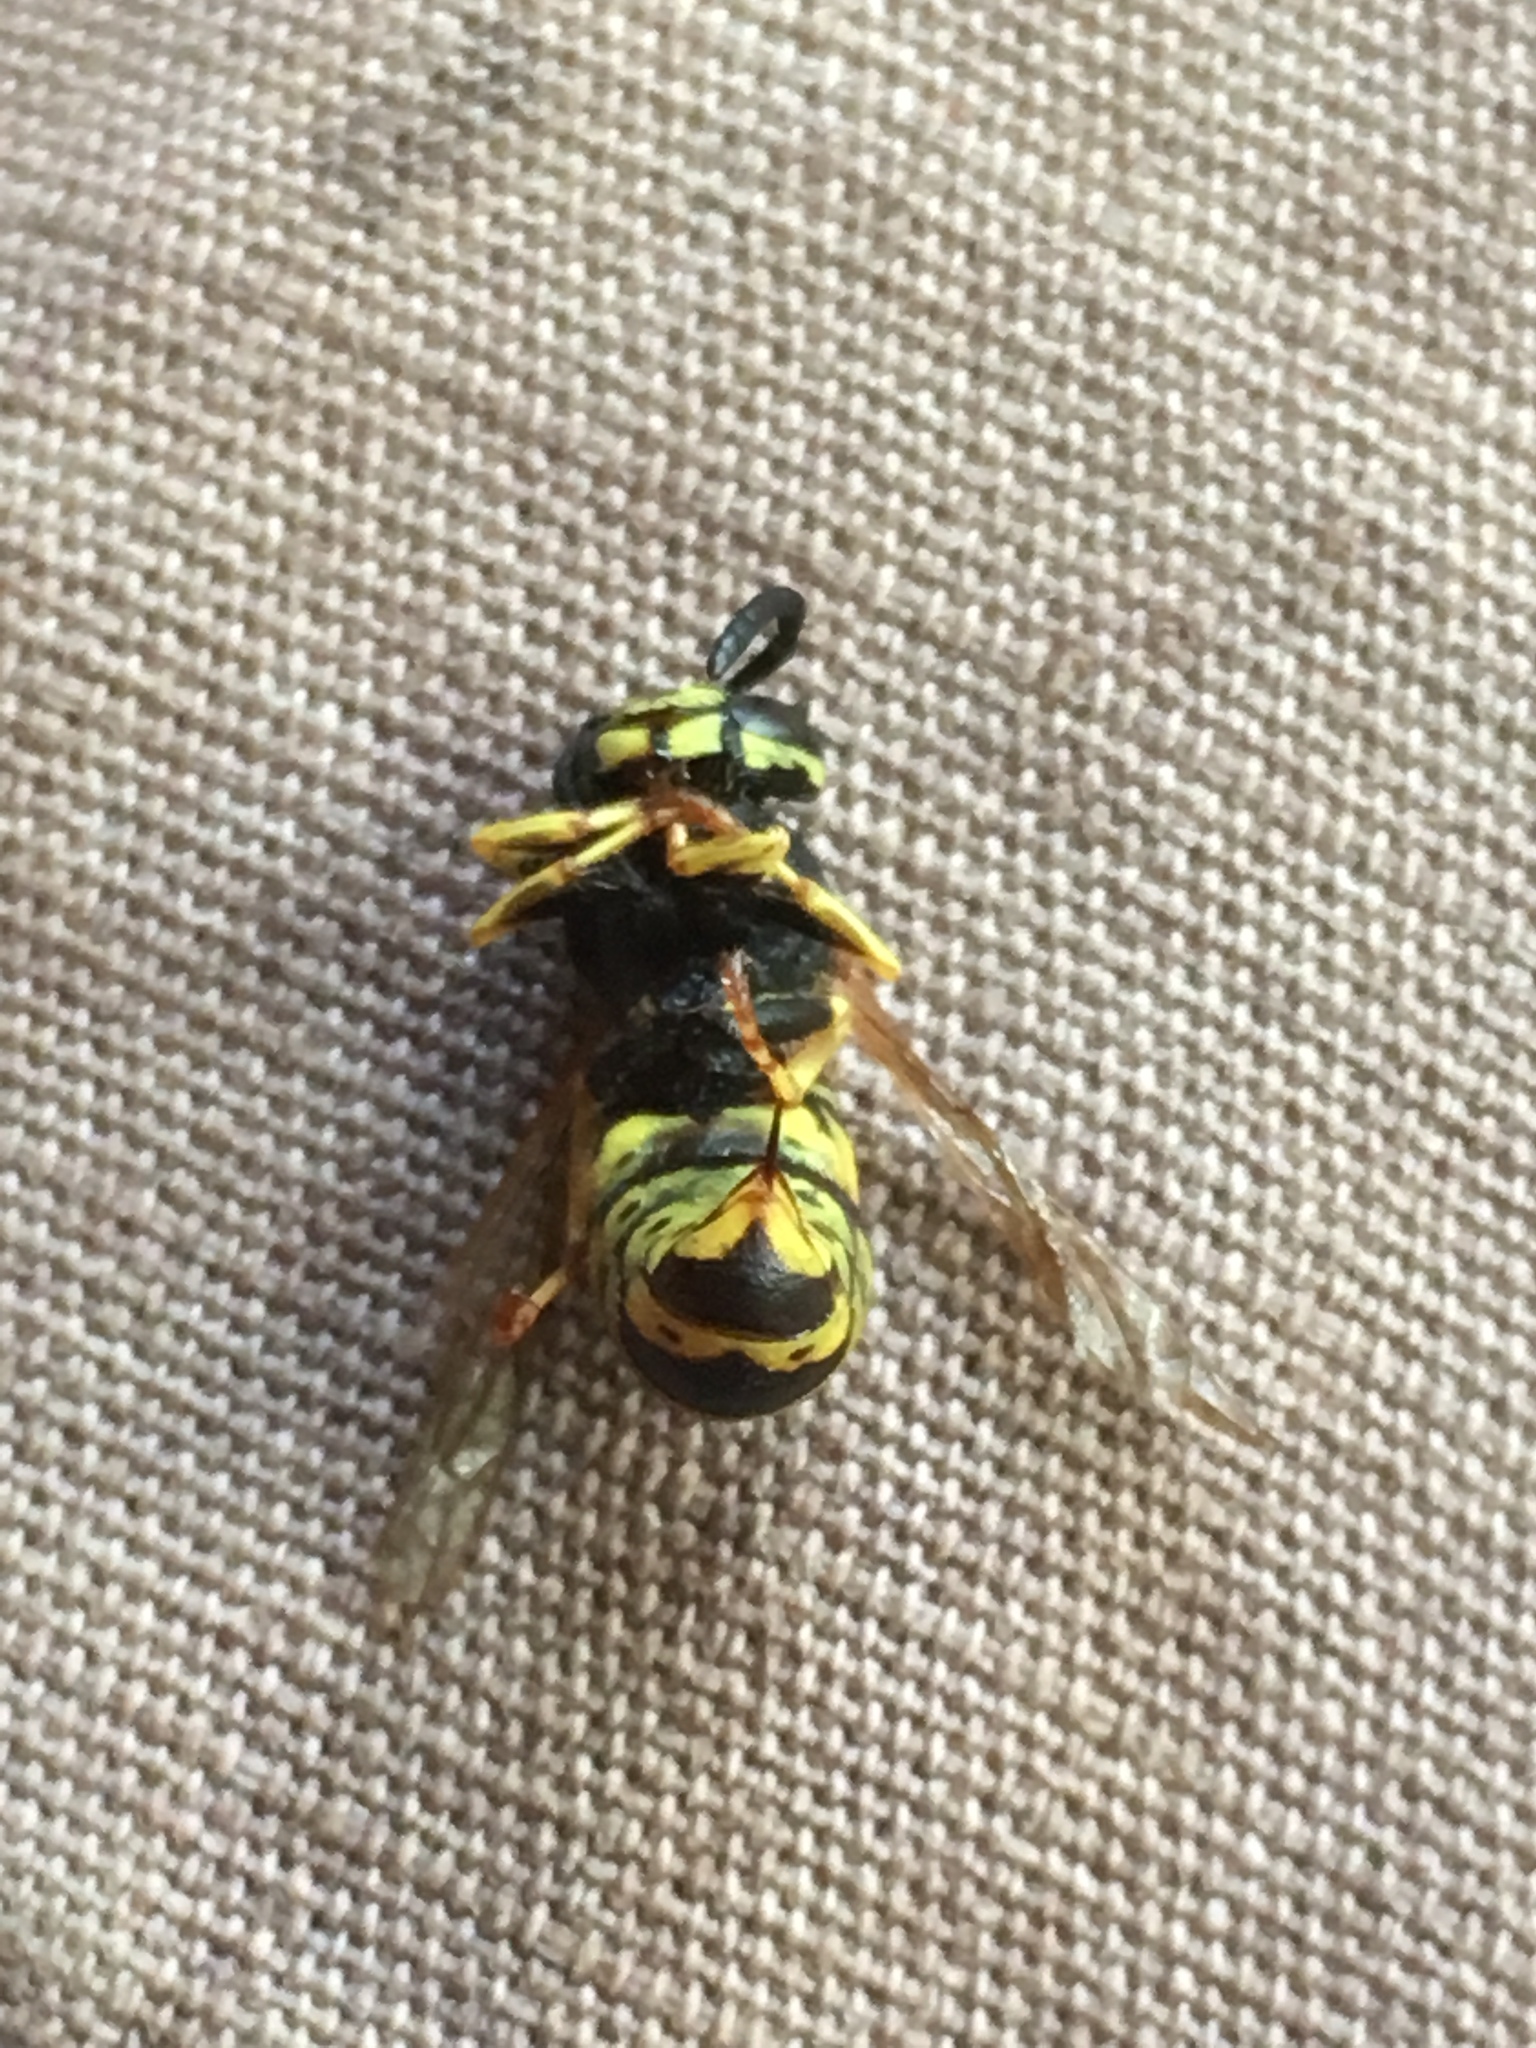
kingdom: Animalia
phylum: Arthropoda
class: Insecta
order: Hymenoptera
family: Vespidae
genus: Vespula
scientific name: Vespula vulgaris
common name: Common wasp
